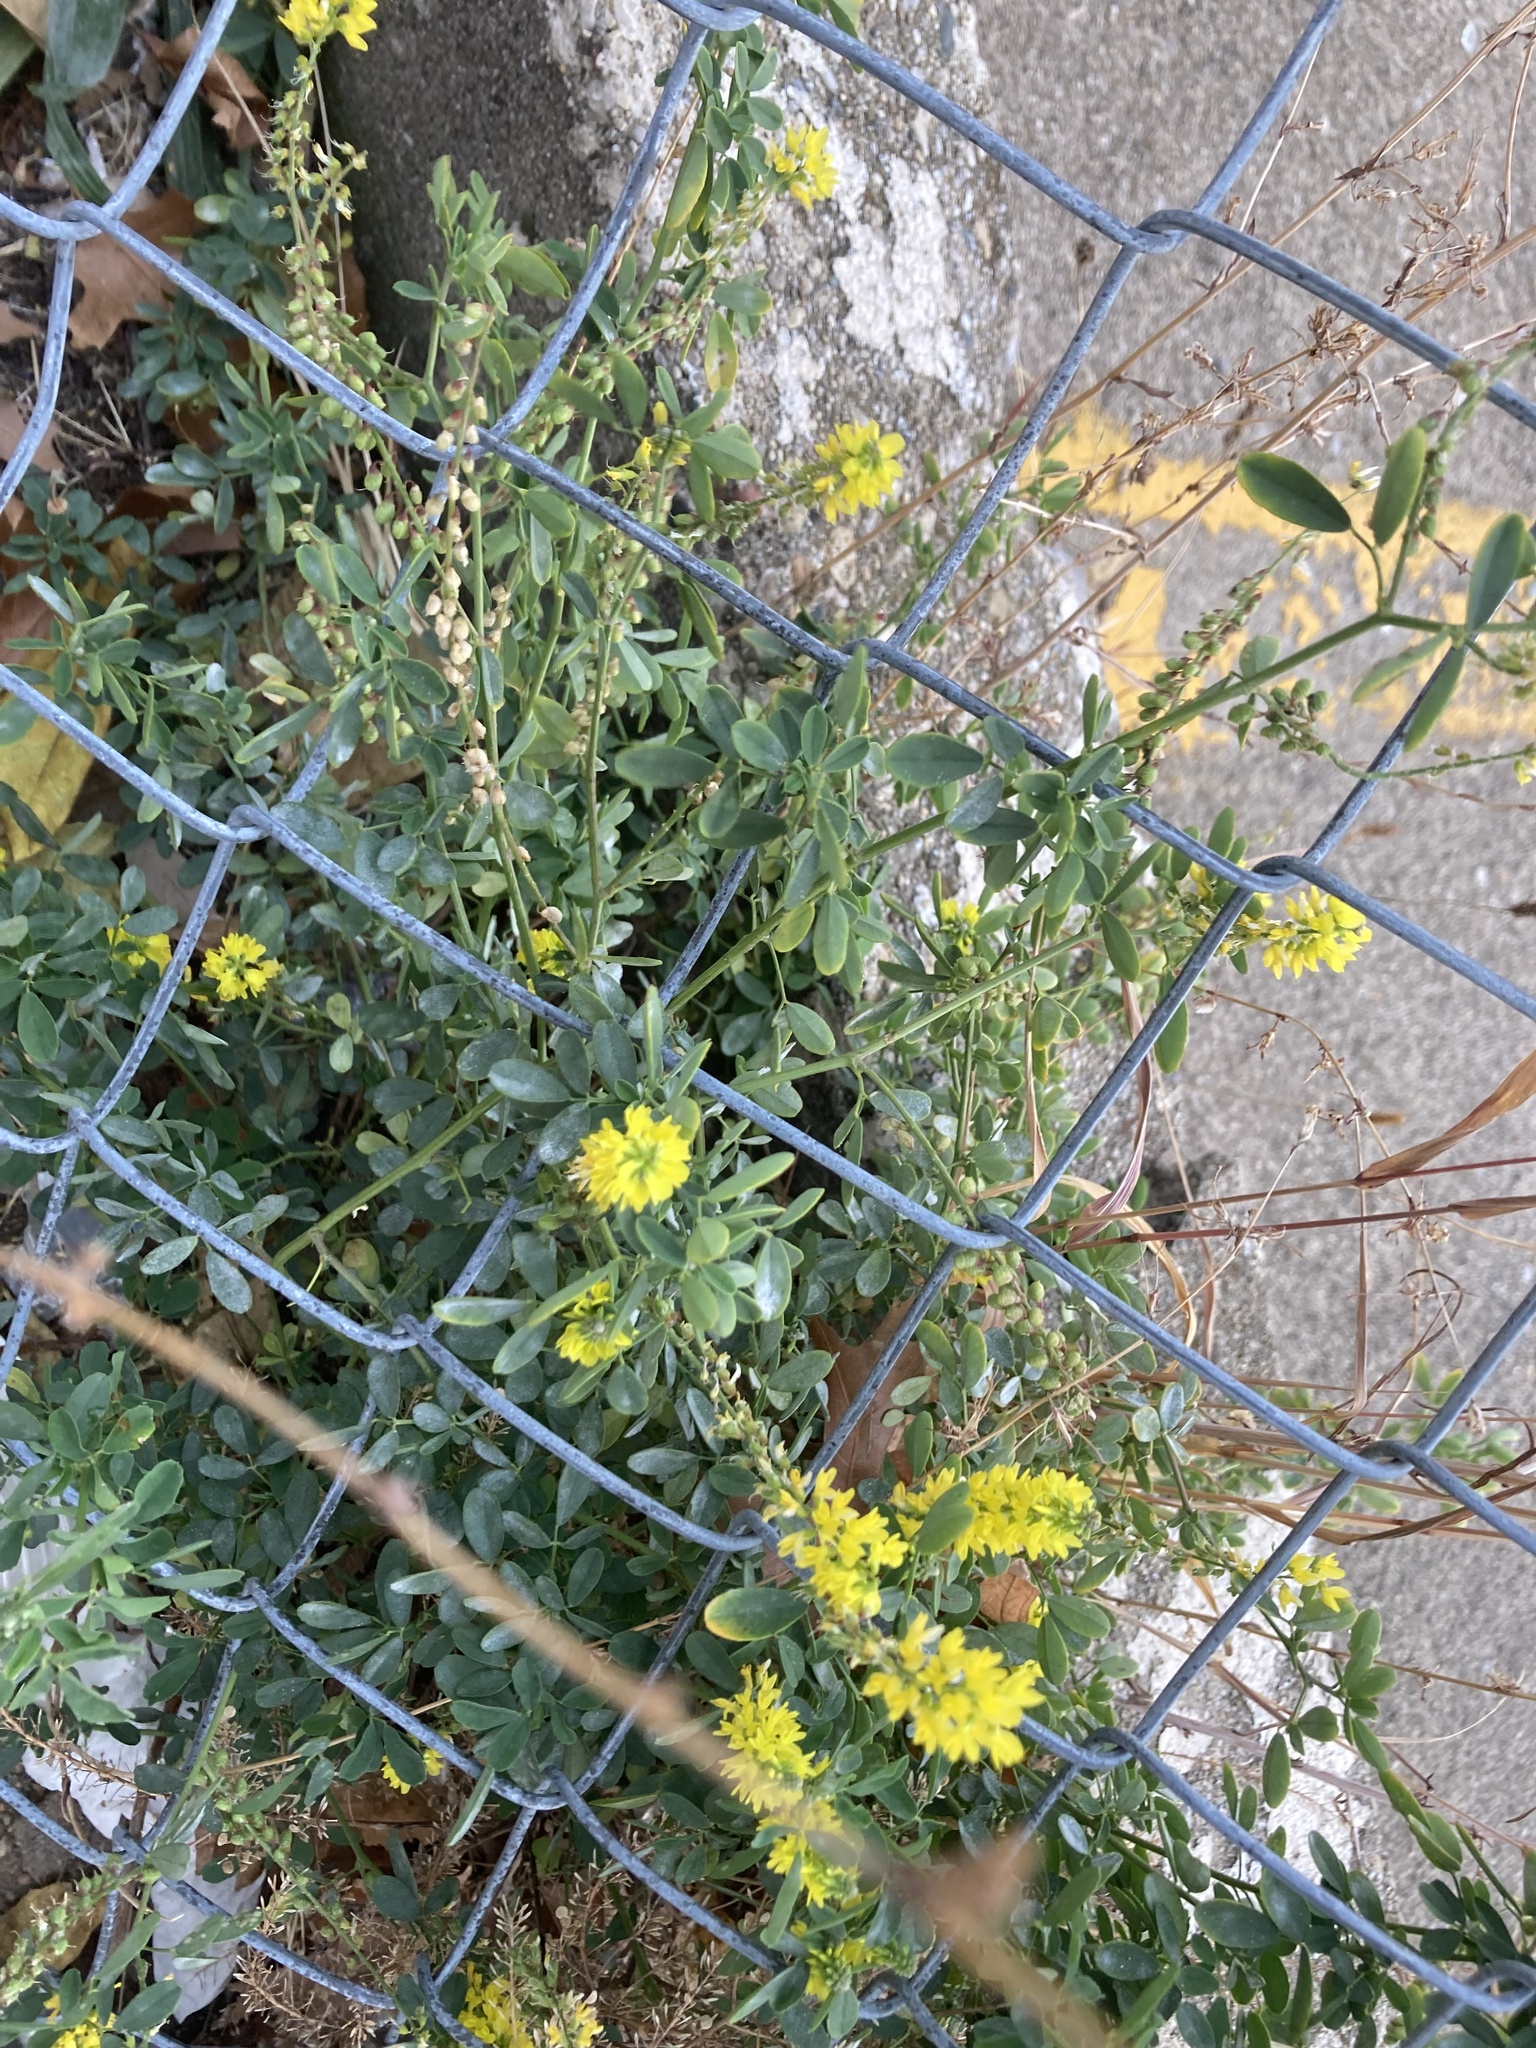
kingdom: Plantae
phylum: Tracheophyta
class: Magnoliopsida
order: Fabales
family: Fabaceae
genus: Melilotus
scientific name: Melilotus officinalis
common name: Sweetclover
